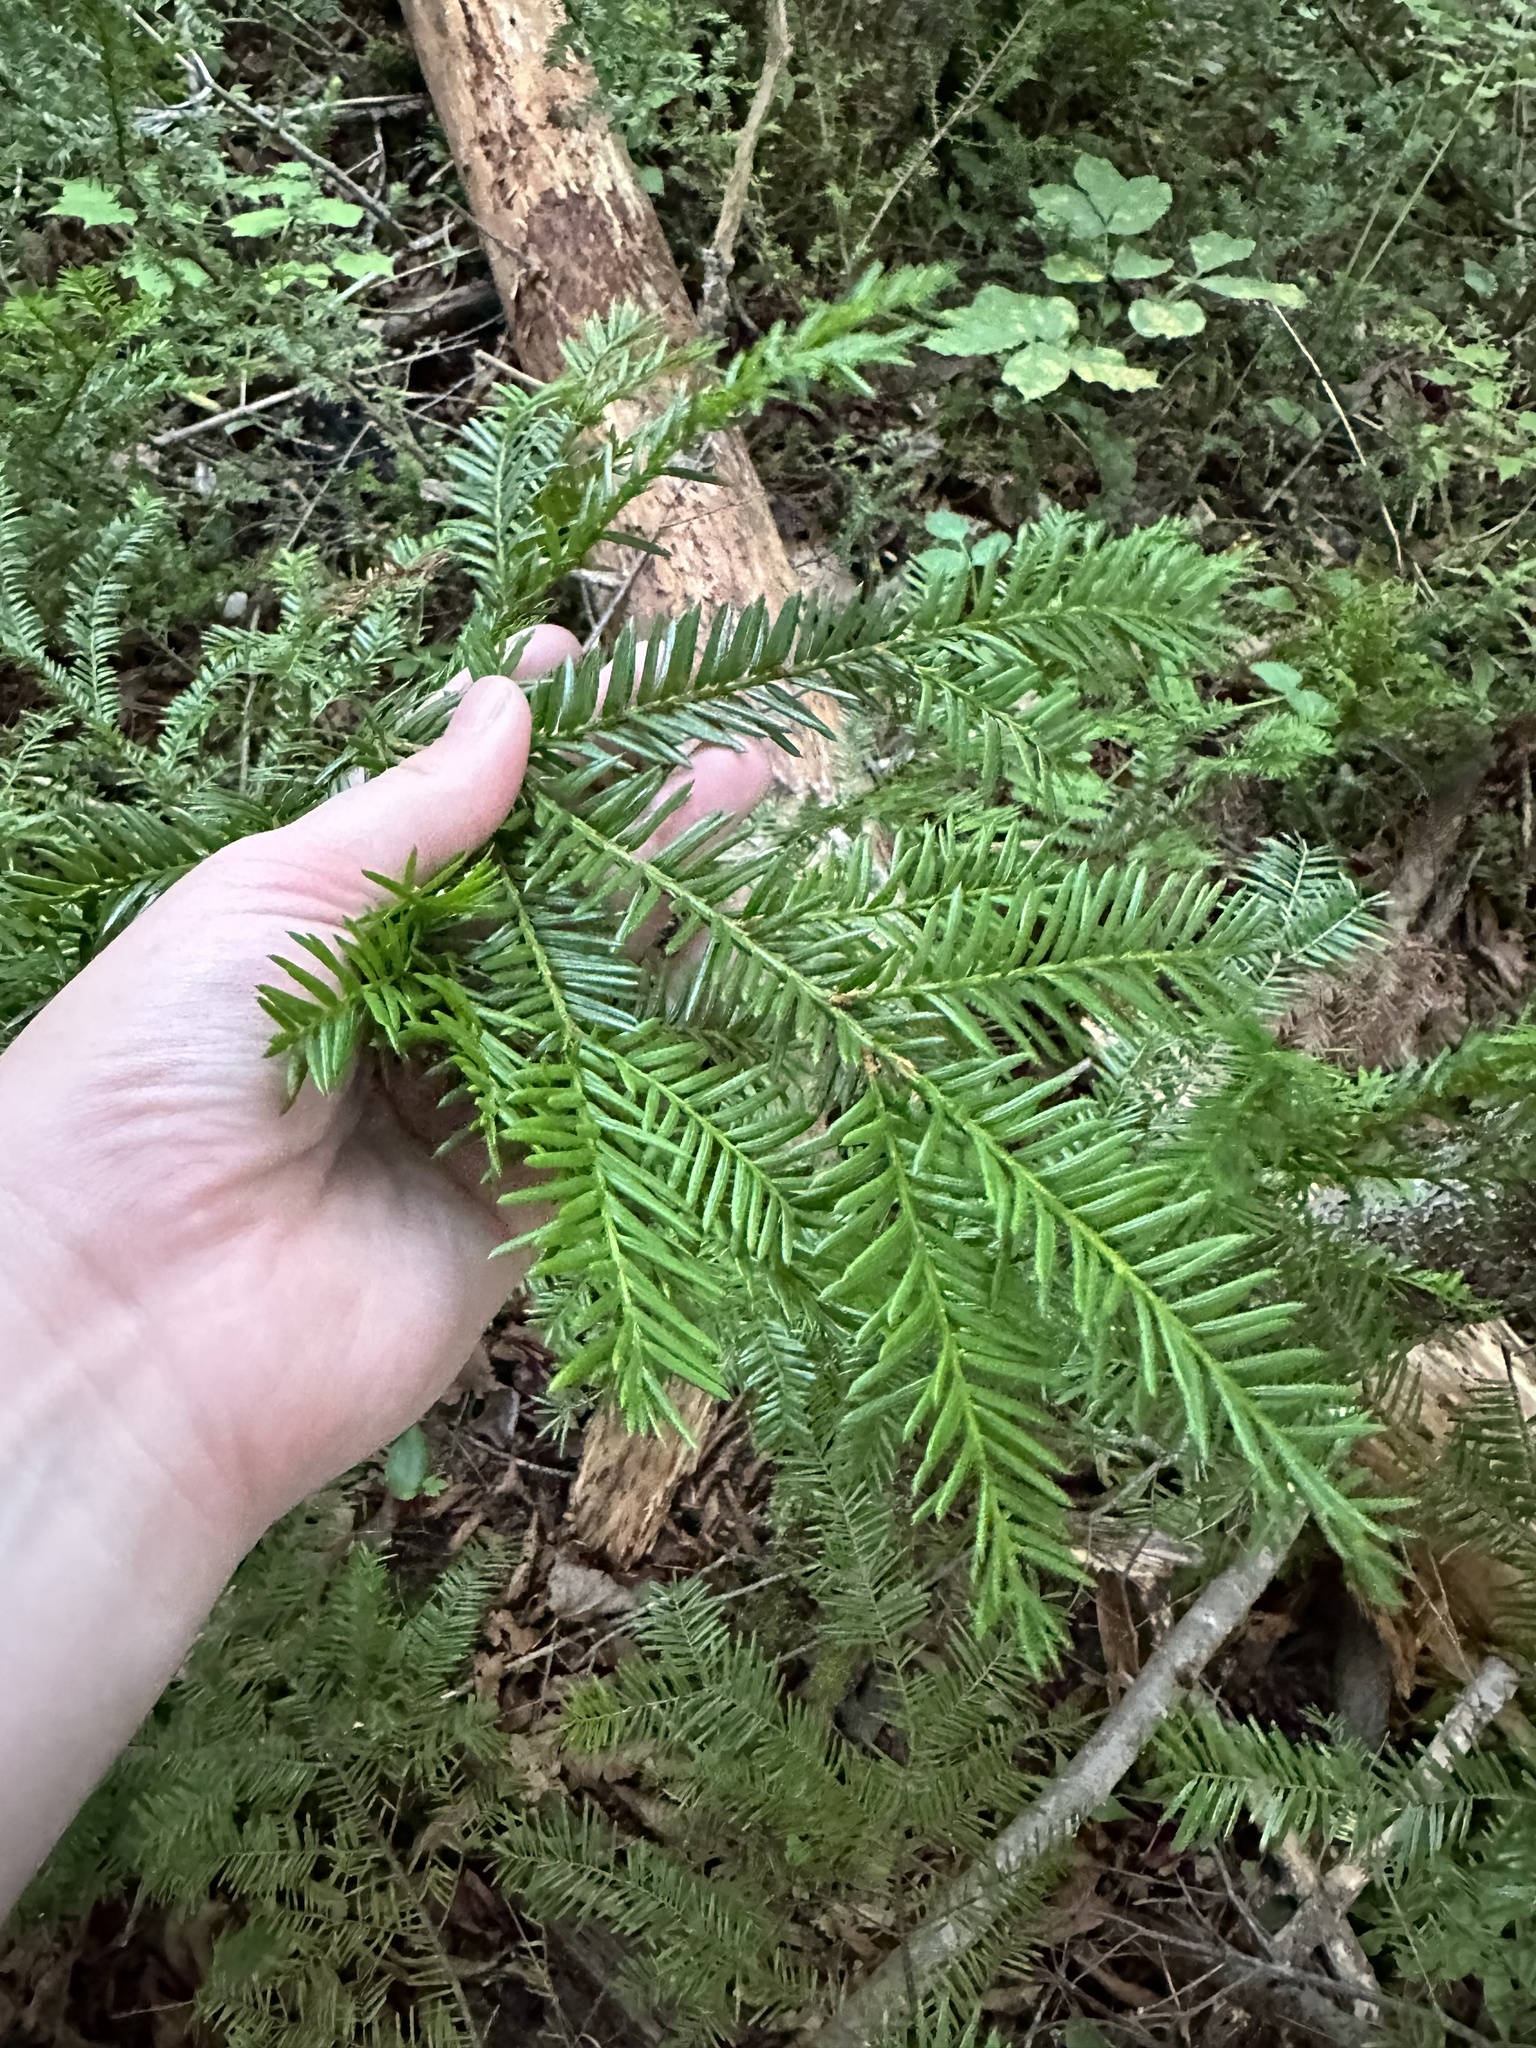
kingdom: Plantae
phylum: Tracheophyta
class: Pinopsida
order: Pinales
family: Taxaceae
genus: Taxus
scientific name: Taxus canadensis
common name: American yew
